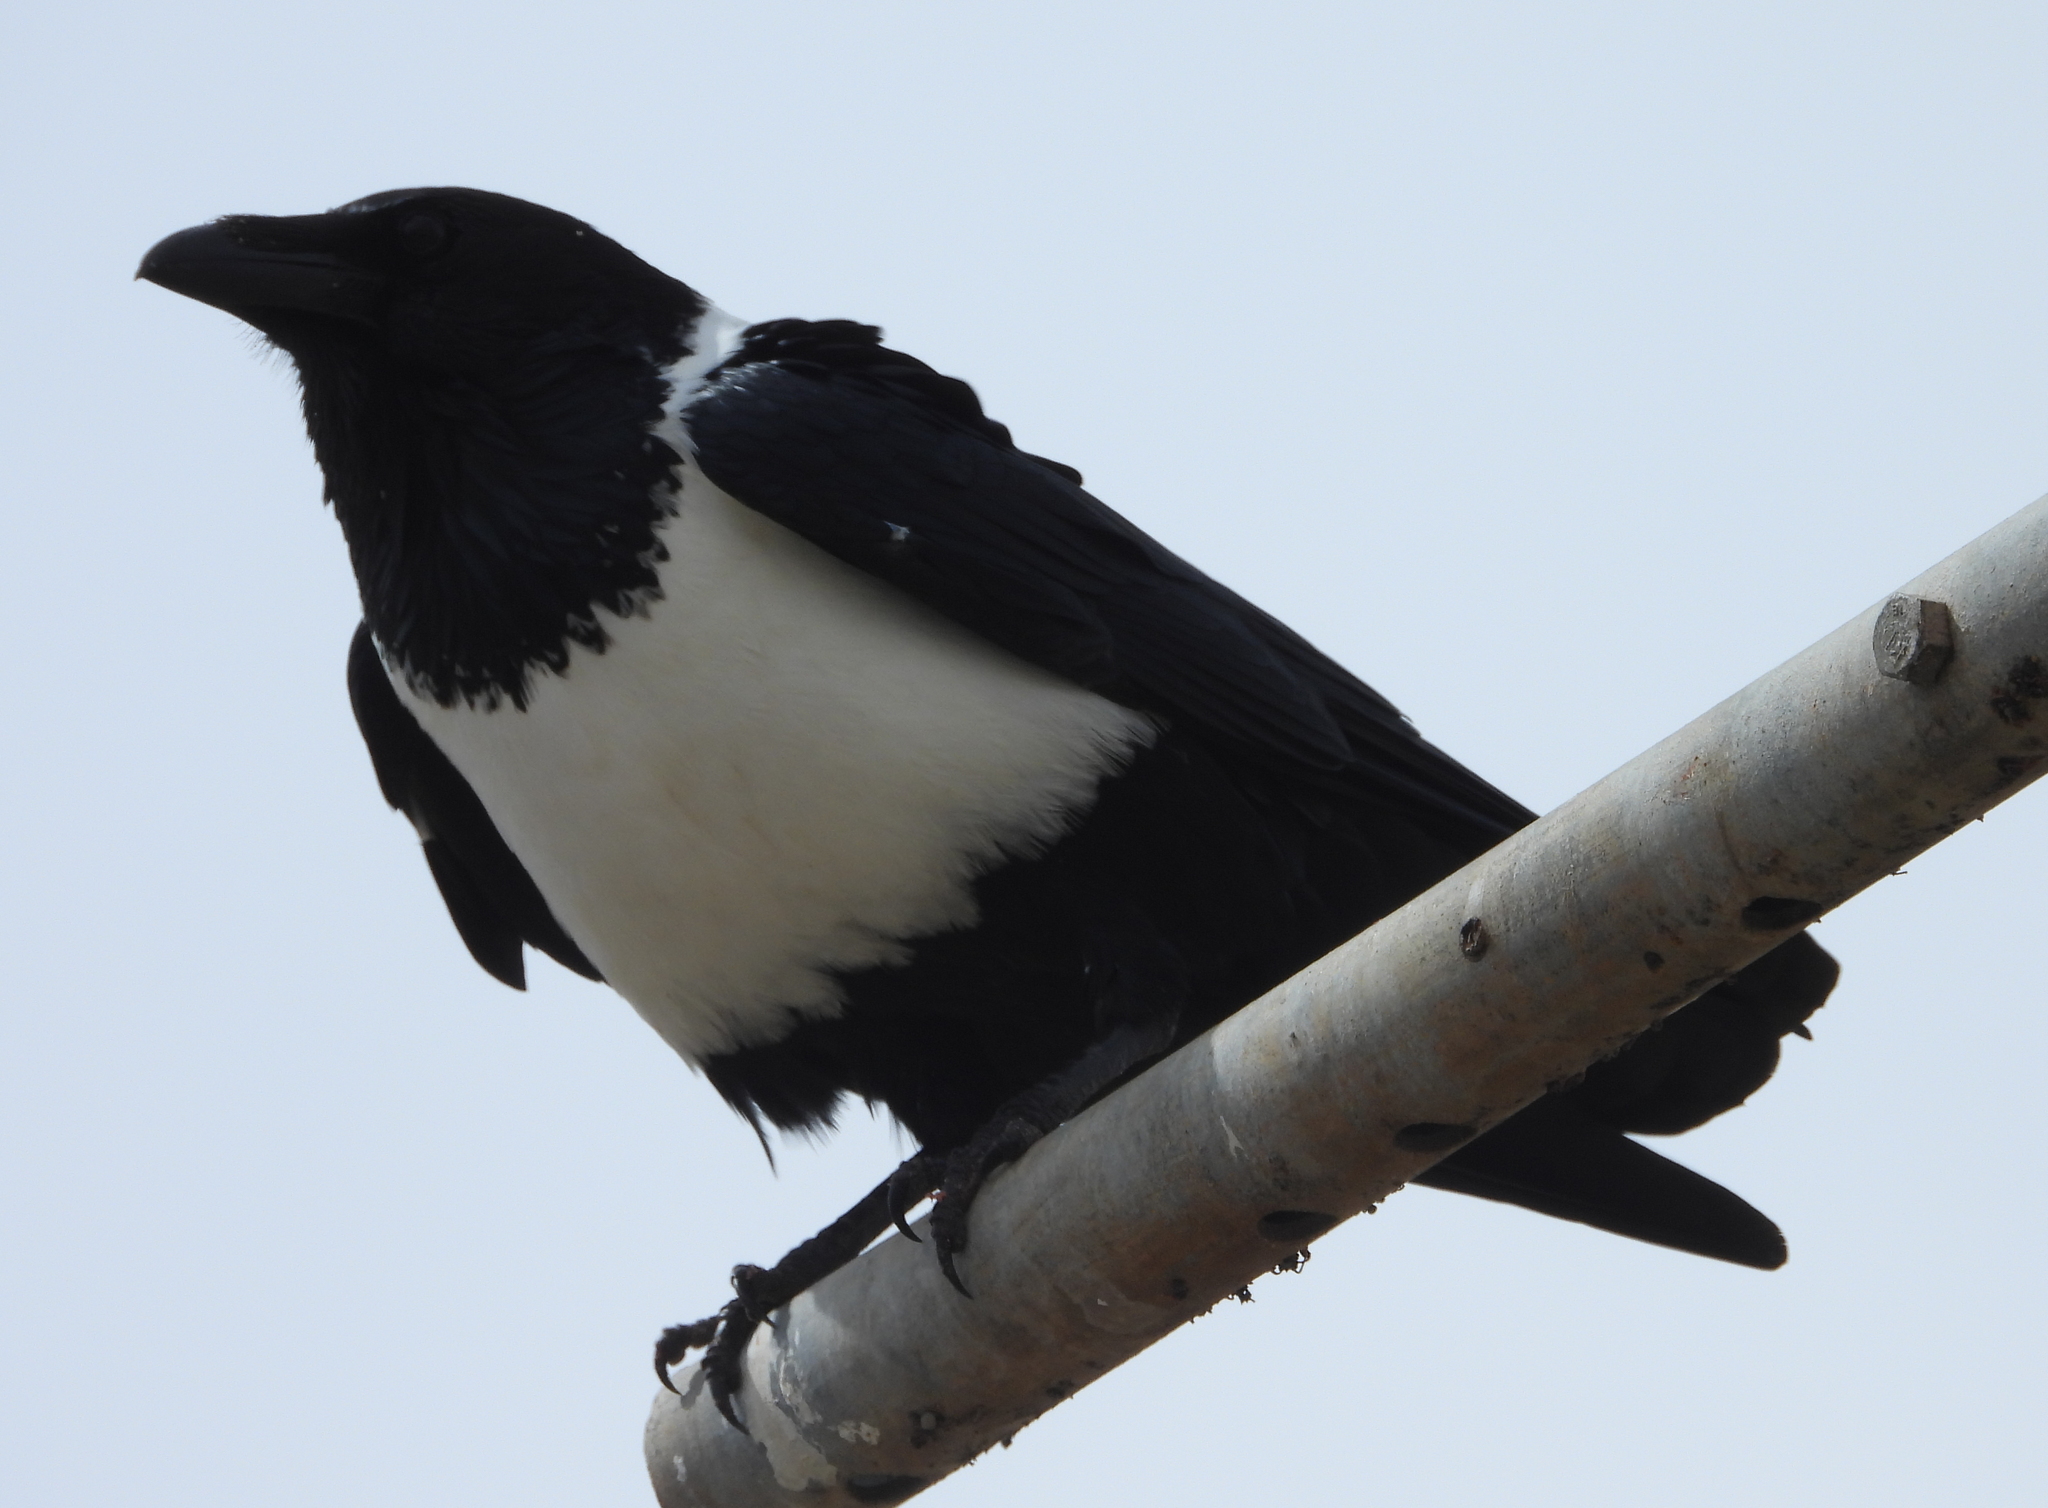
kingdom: Animalia
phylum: Chordata
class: Aves
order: Passeriformes
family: Corvidae
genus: Corvus
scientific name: Corvus albus
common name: Pied crow
